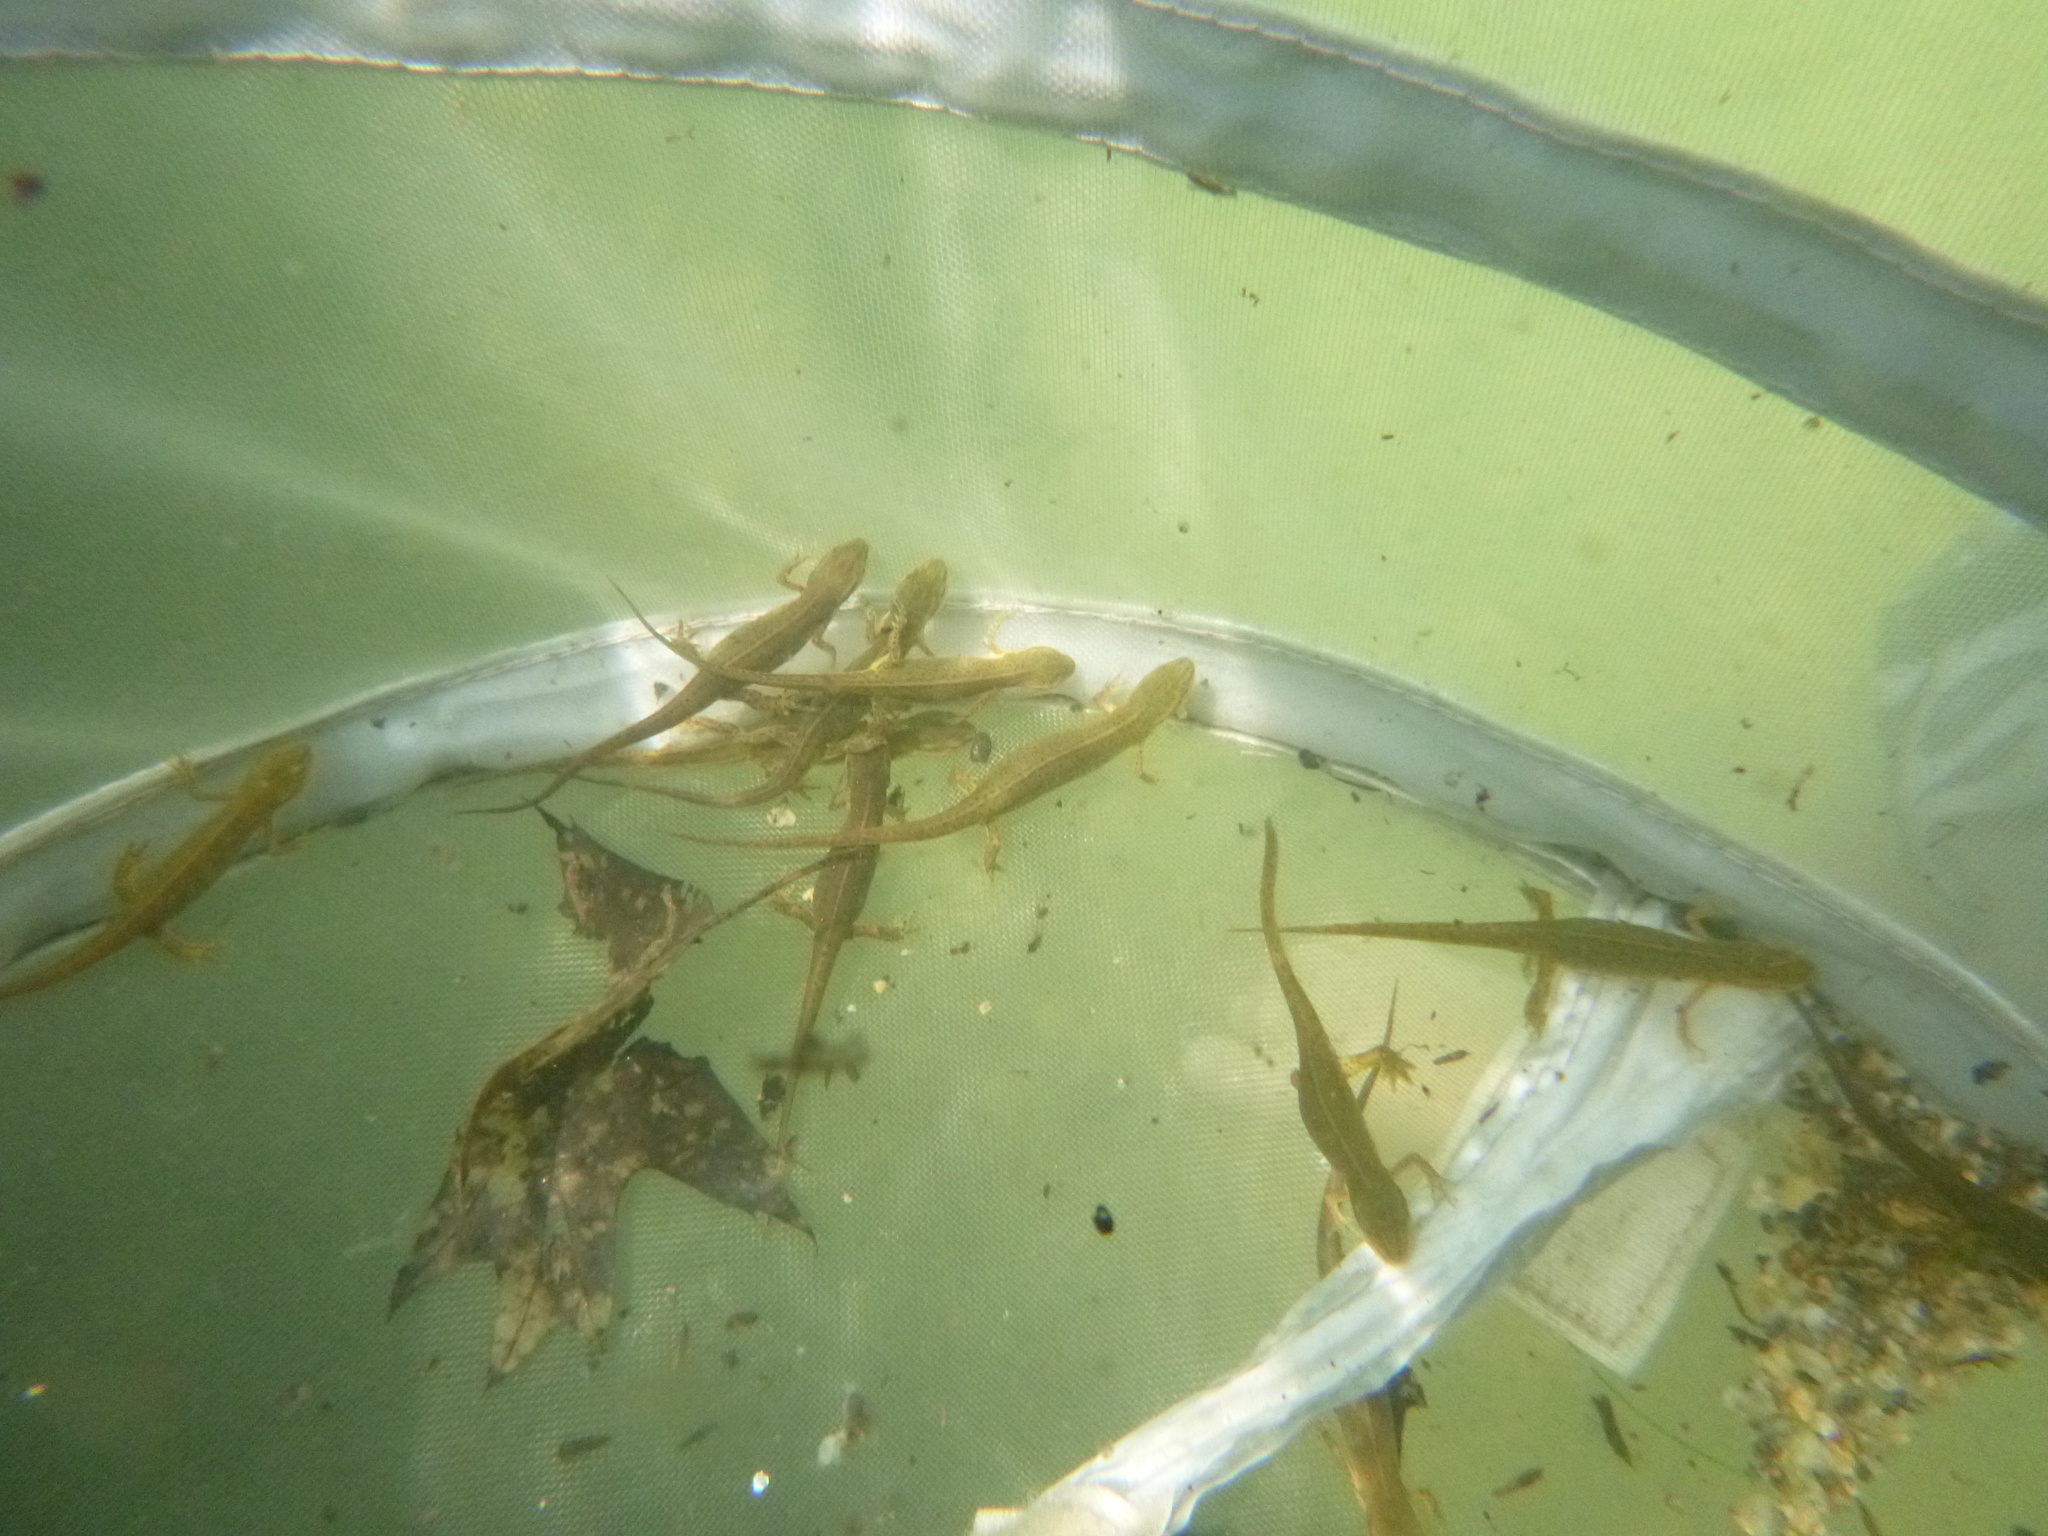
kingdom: Animalia
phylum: Chordata
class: Amphibia
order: Caudata
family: Salamandridae
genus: Notophthalmus
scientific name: Notophthalmus viridescens
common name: Eastern newt
